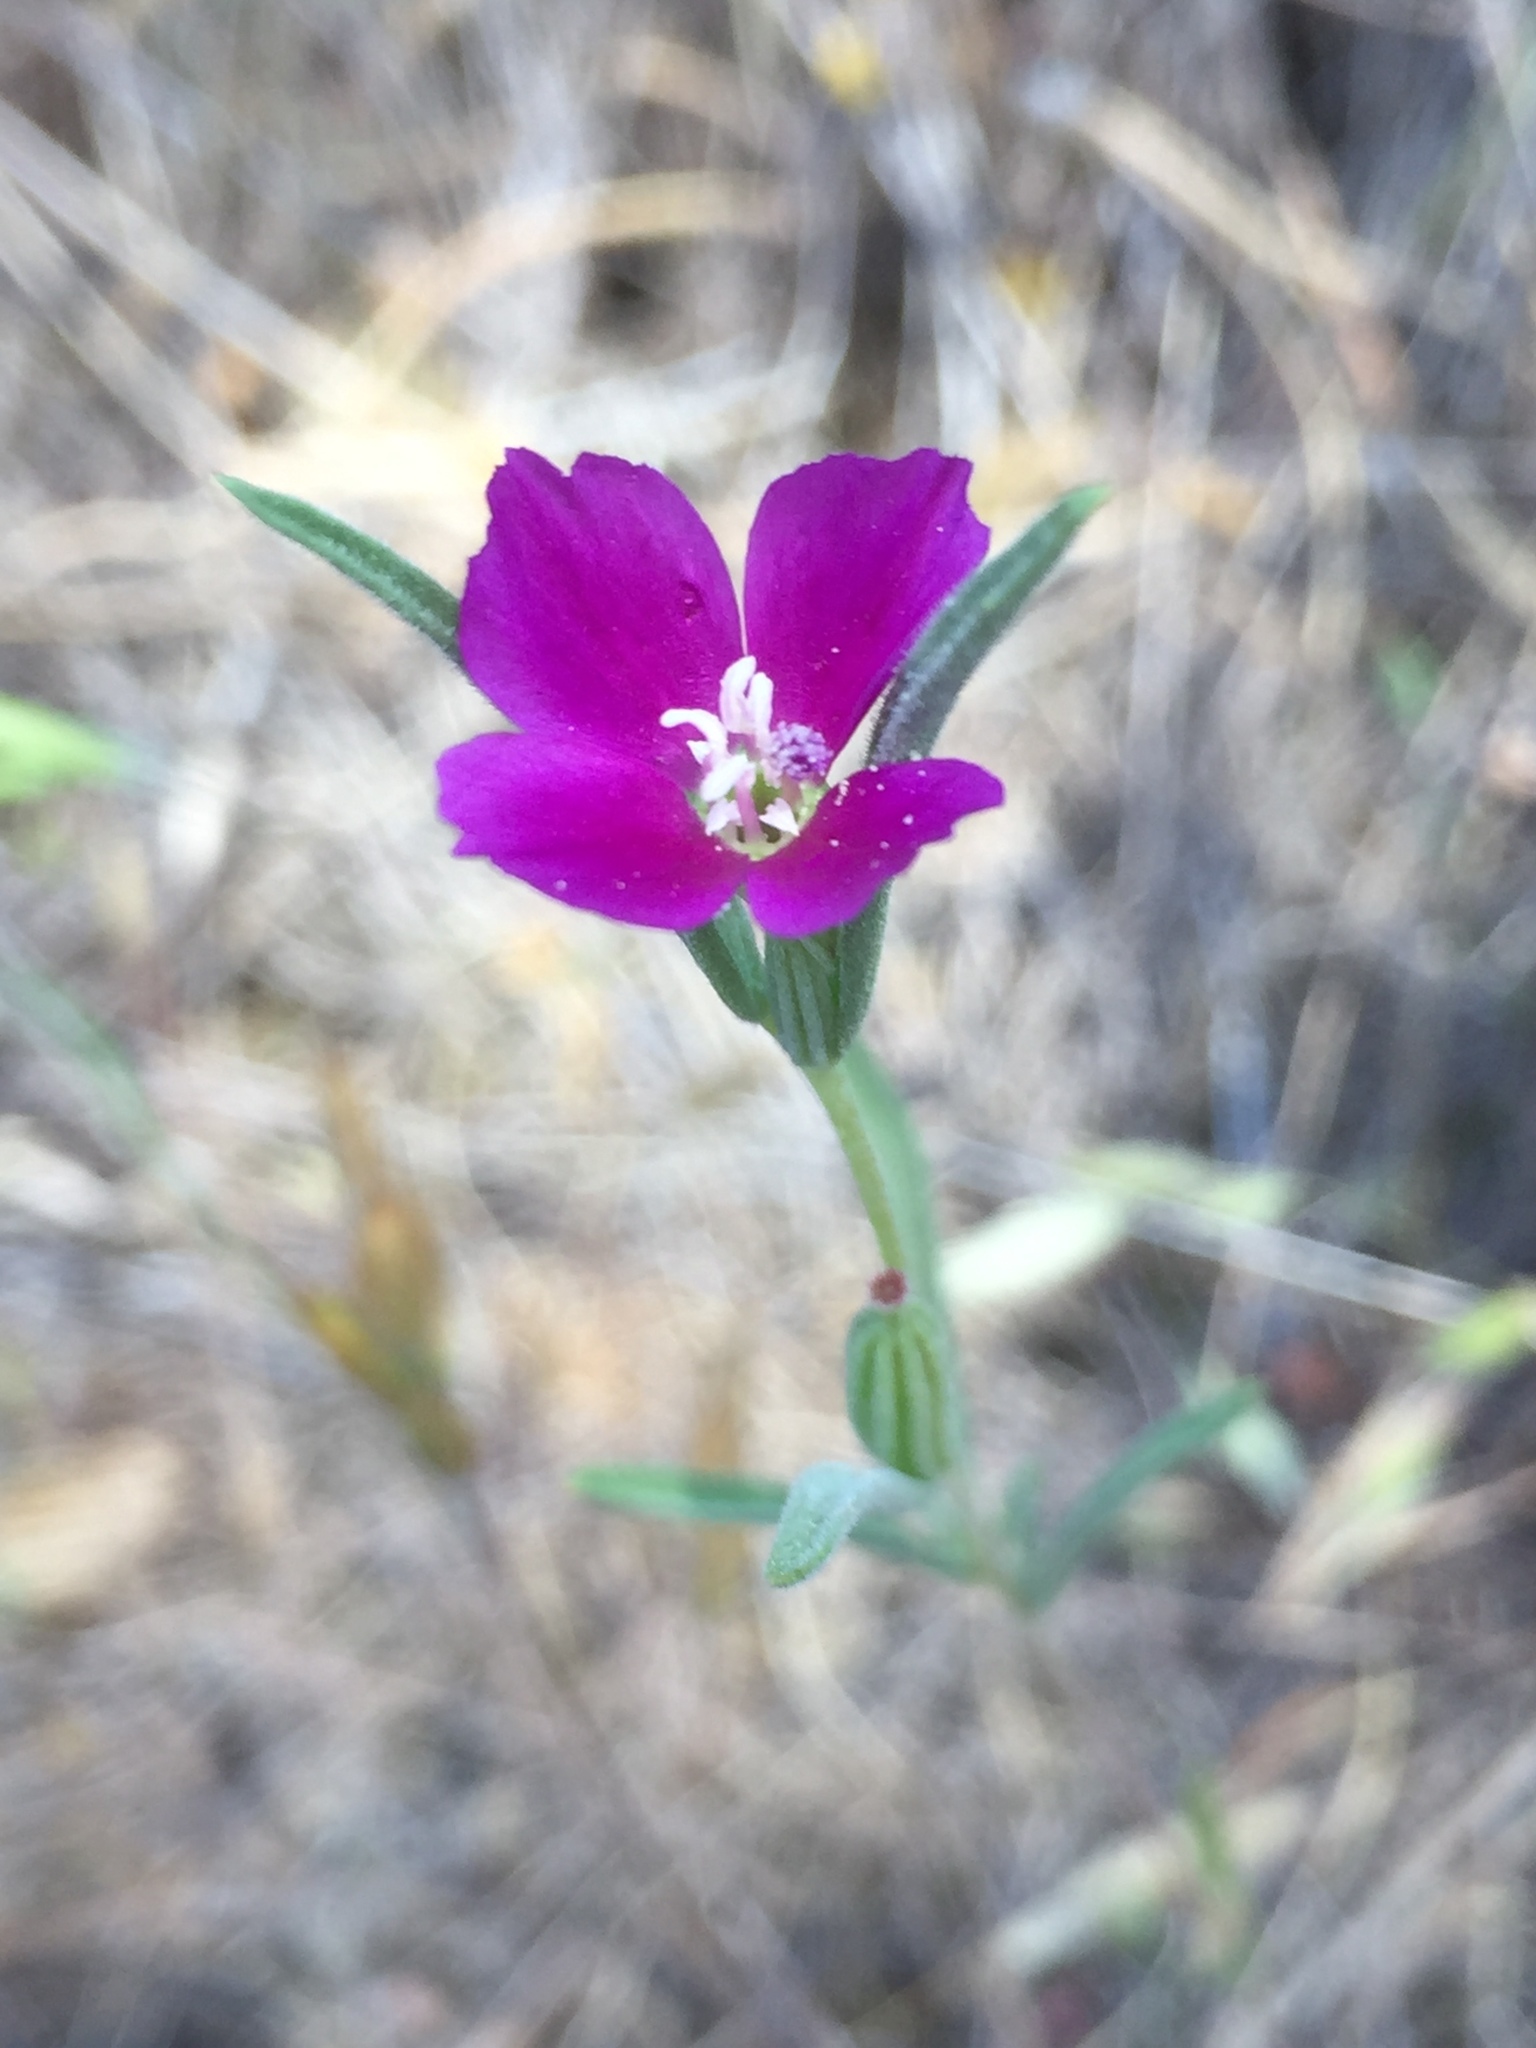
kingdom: Plantae
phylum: Tracheophyta
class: Magnoliopsida
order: Myrtales
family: Onagraceae
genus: Clarkia
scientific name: Clarkia purpurea
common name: Purple clarkia
